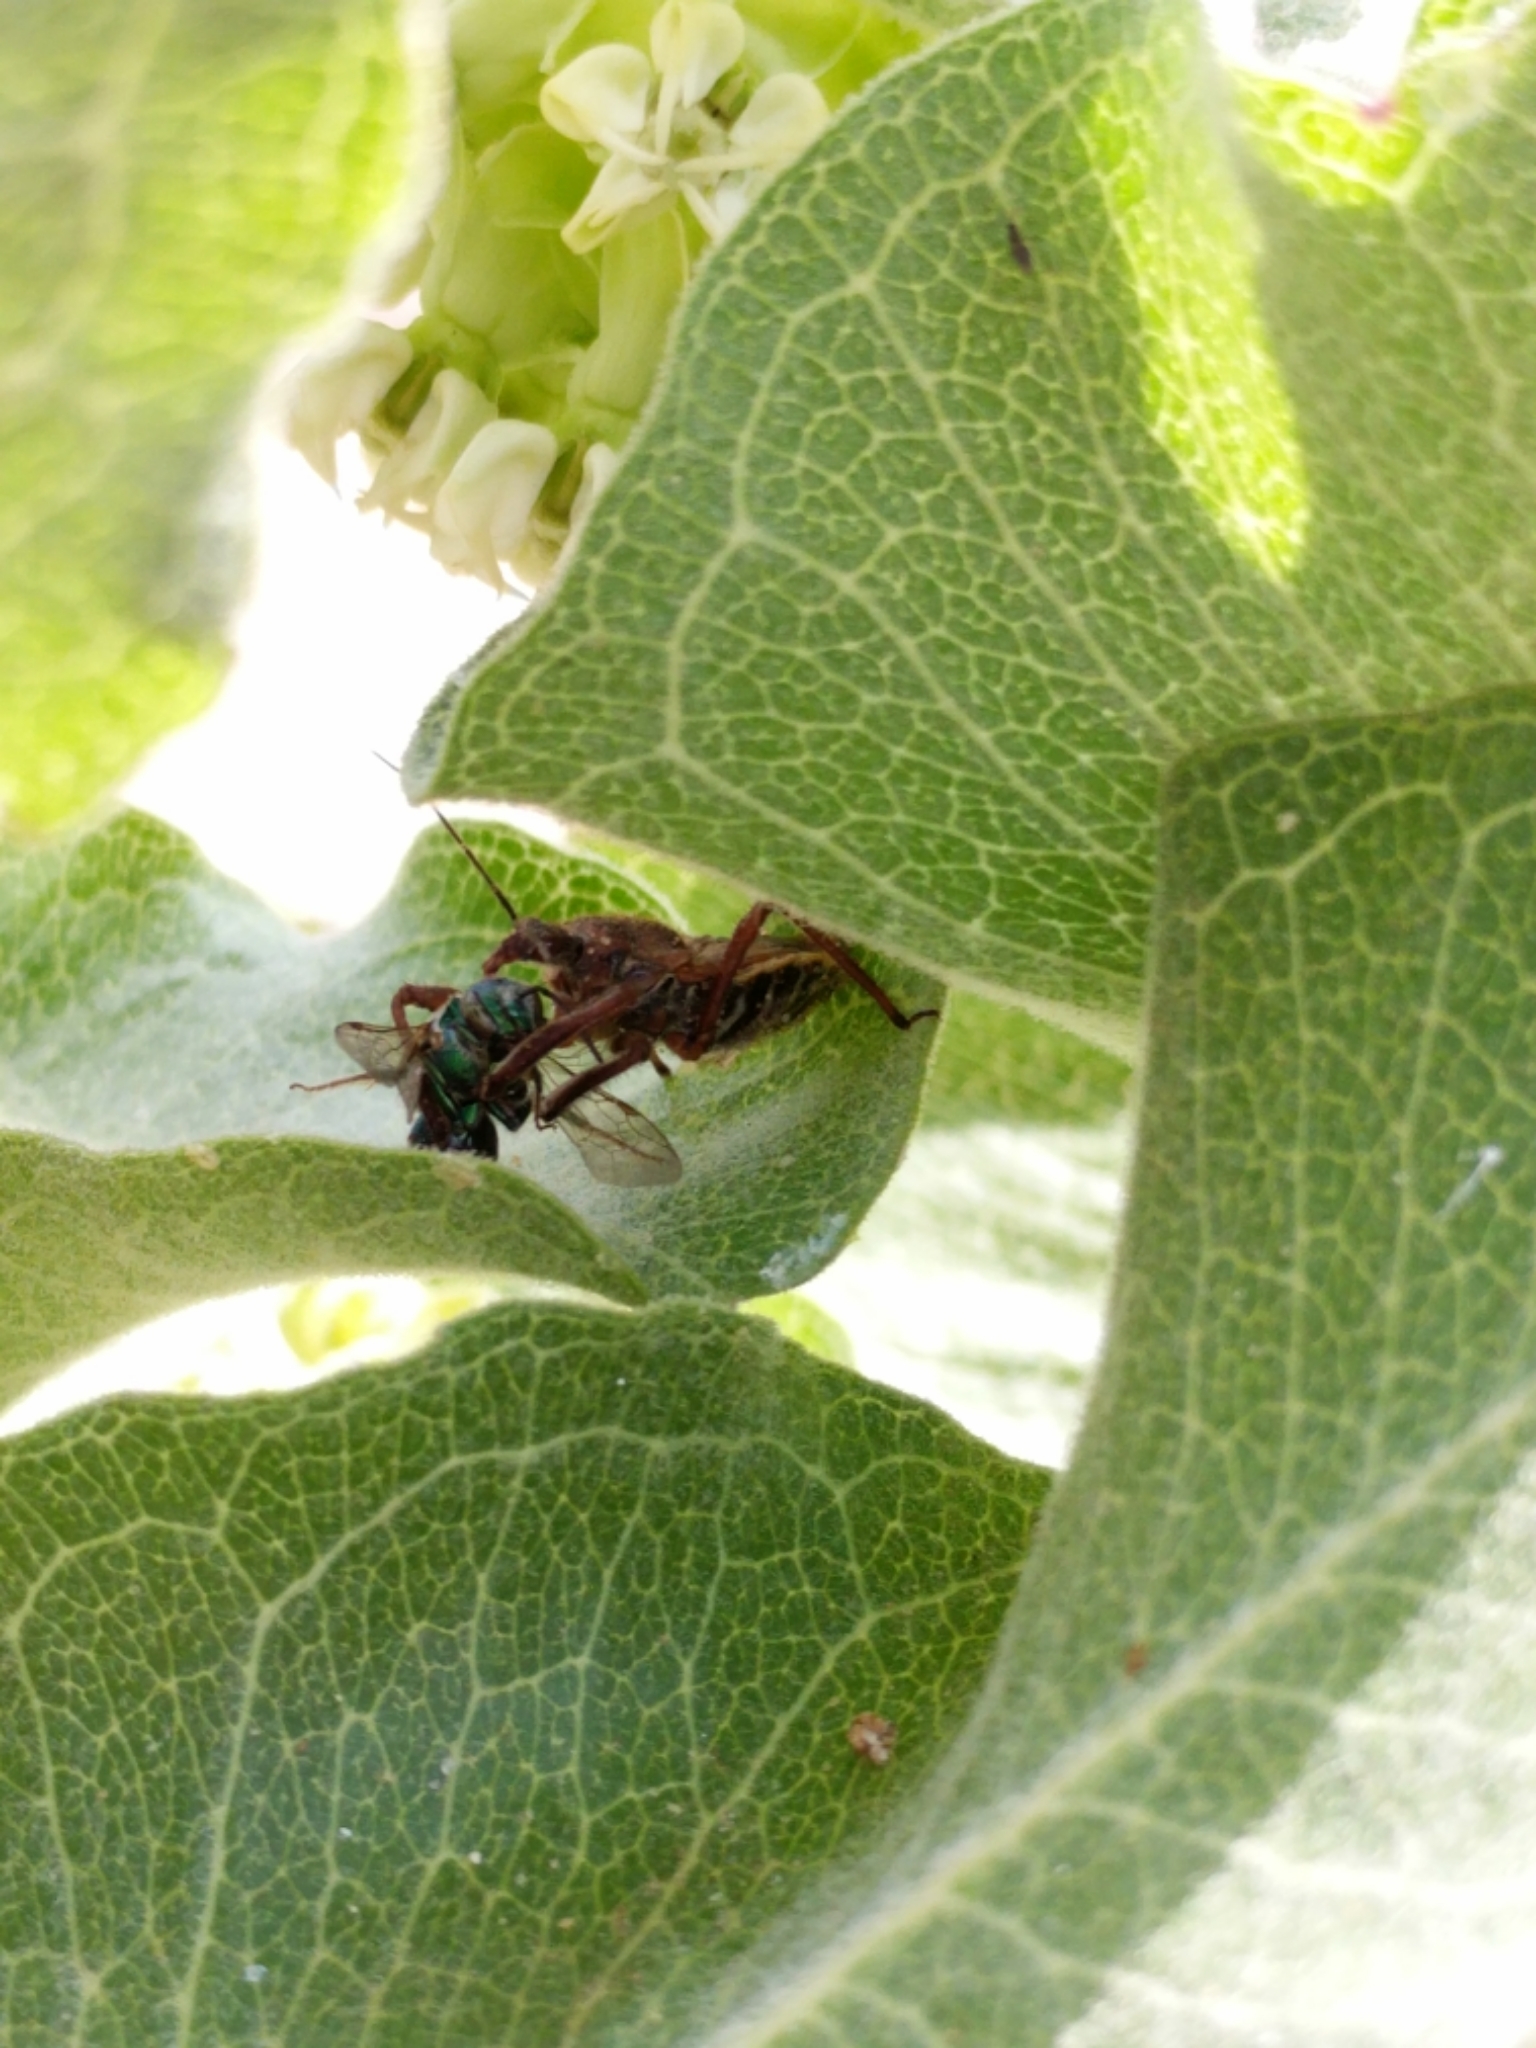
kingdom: Animalia
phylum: Arthropoda
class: Insecta
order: Hemiptera
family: Reduviidae
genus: Apiomerus
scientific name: Apiomerus spissipes
